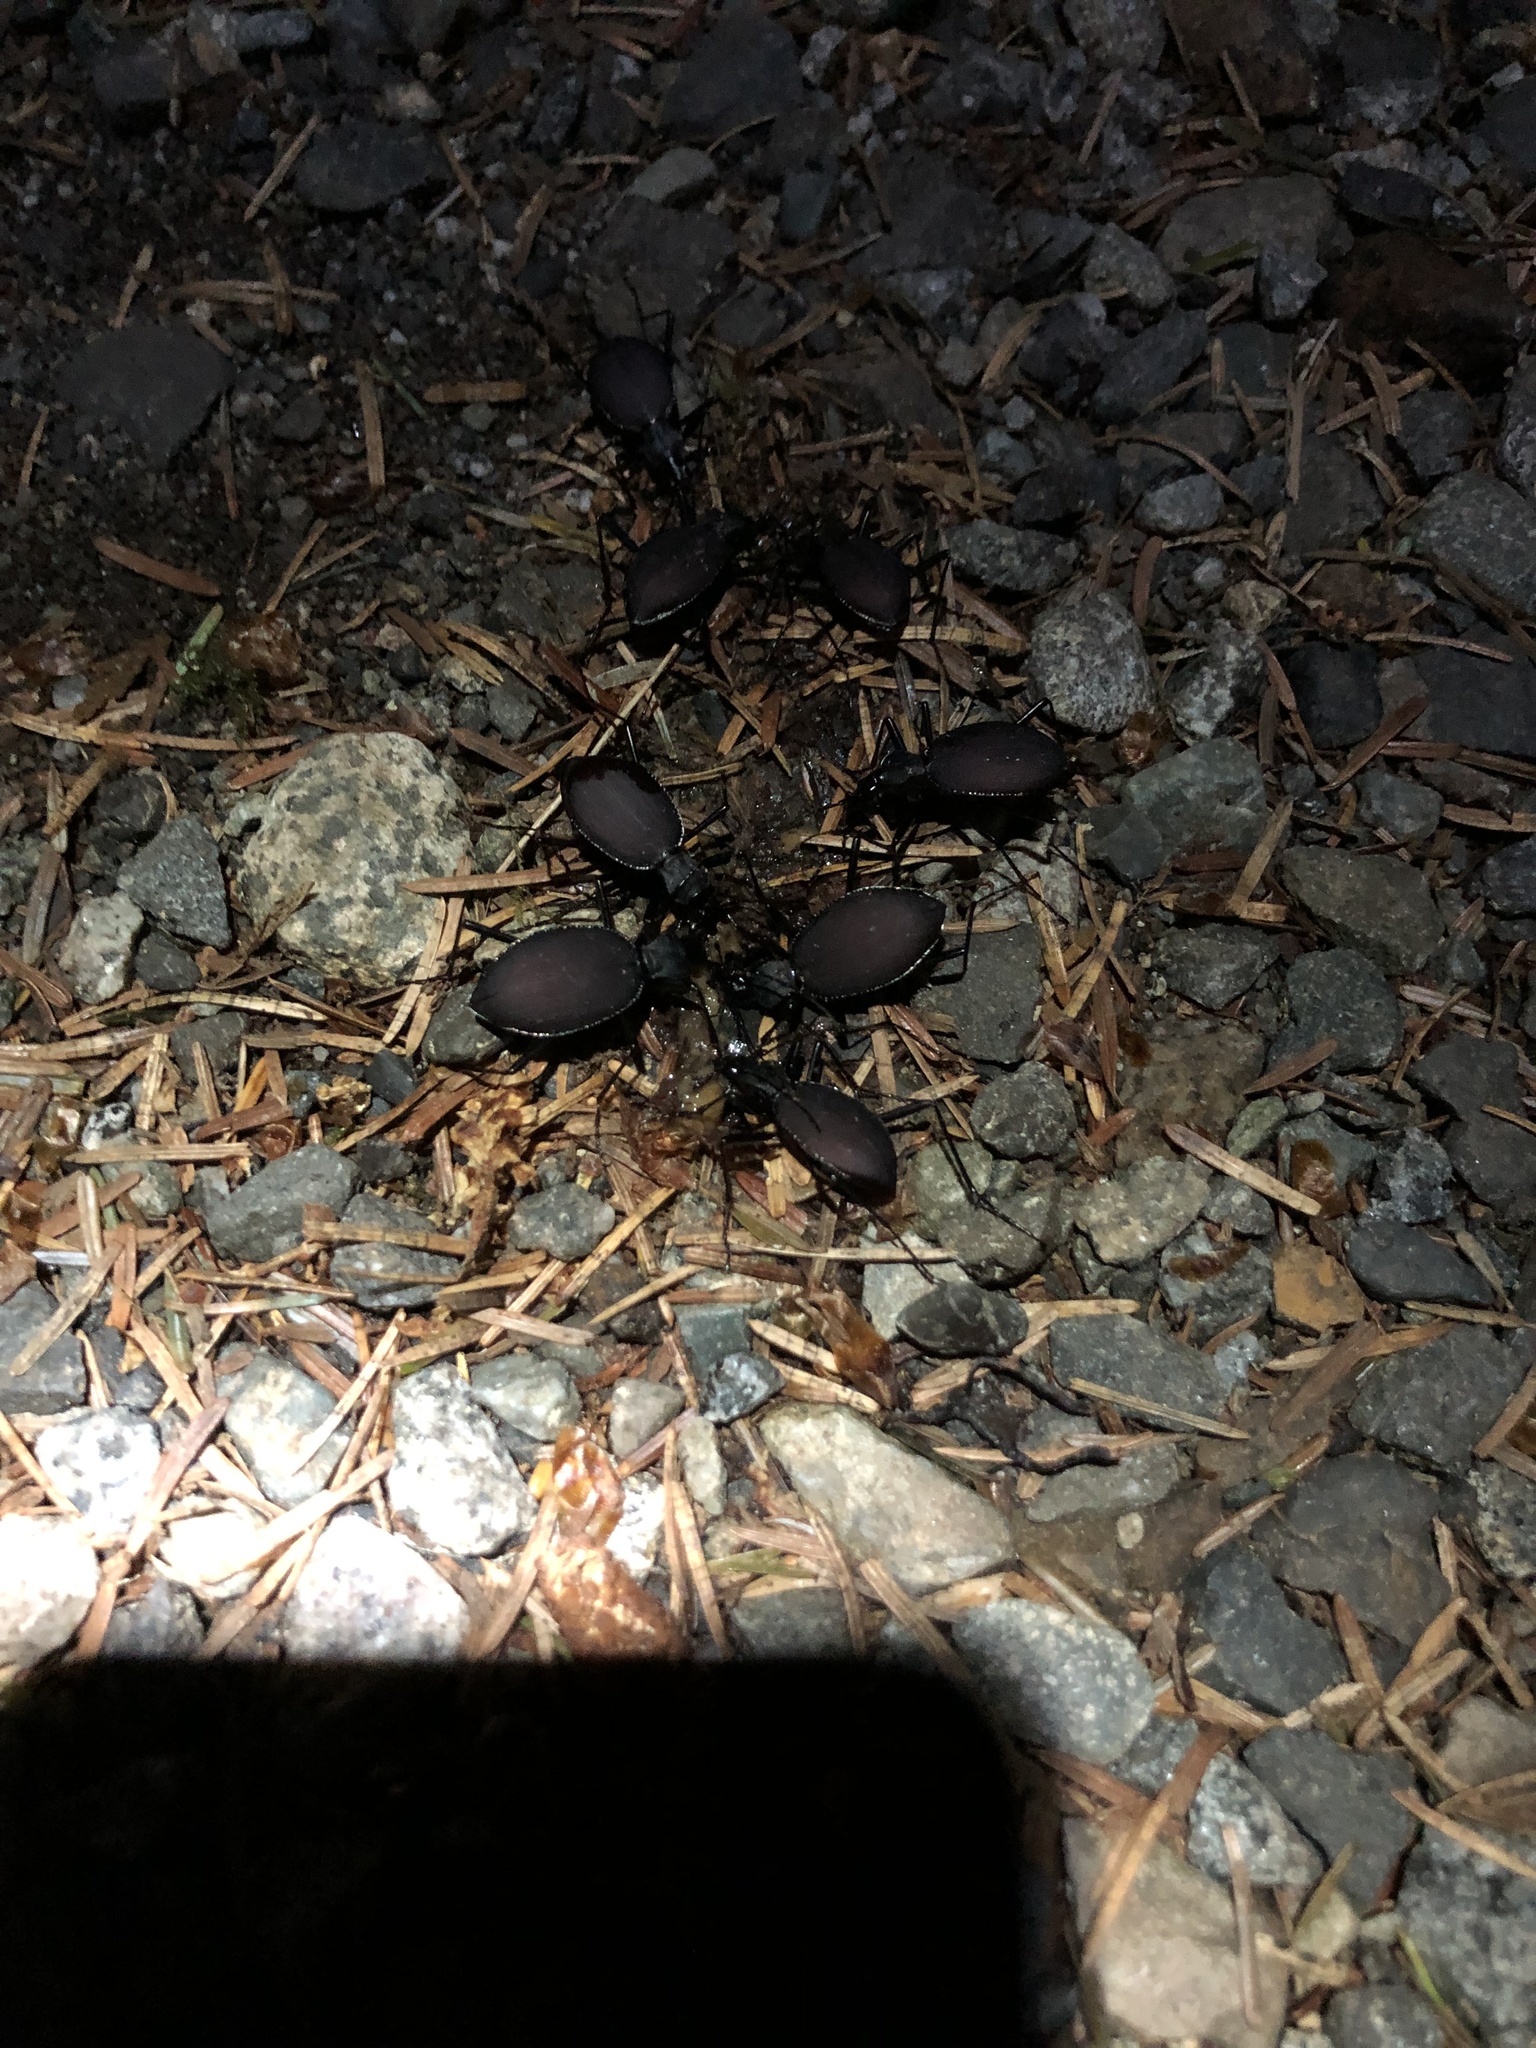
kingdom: Animalia
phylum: Arthropoda
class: Insecta
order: Coleoptera
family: Carabidae
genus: Scaphinotus
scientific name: Scaphinotus angusticollis
